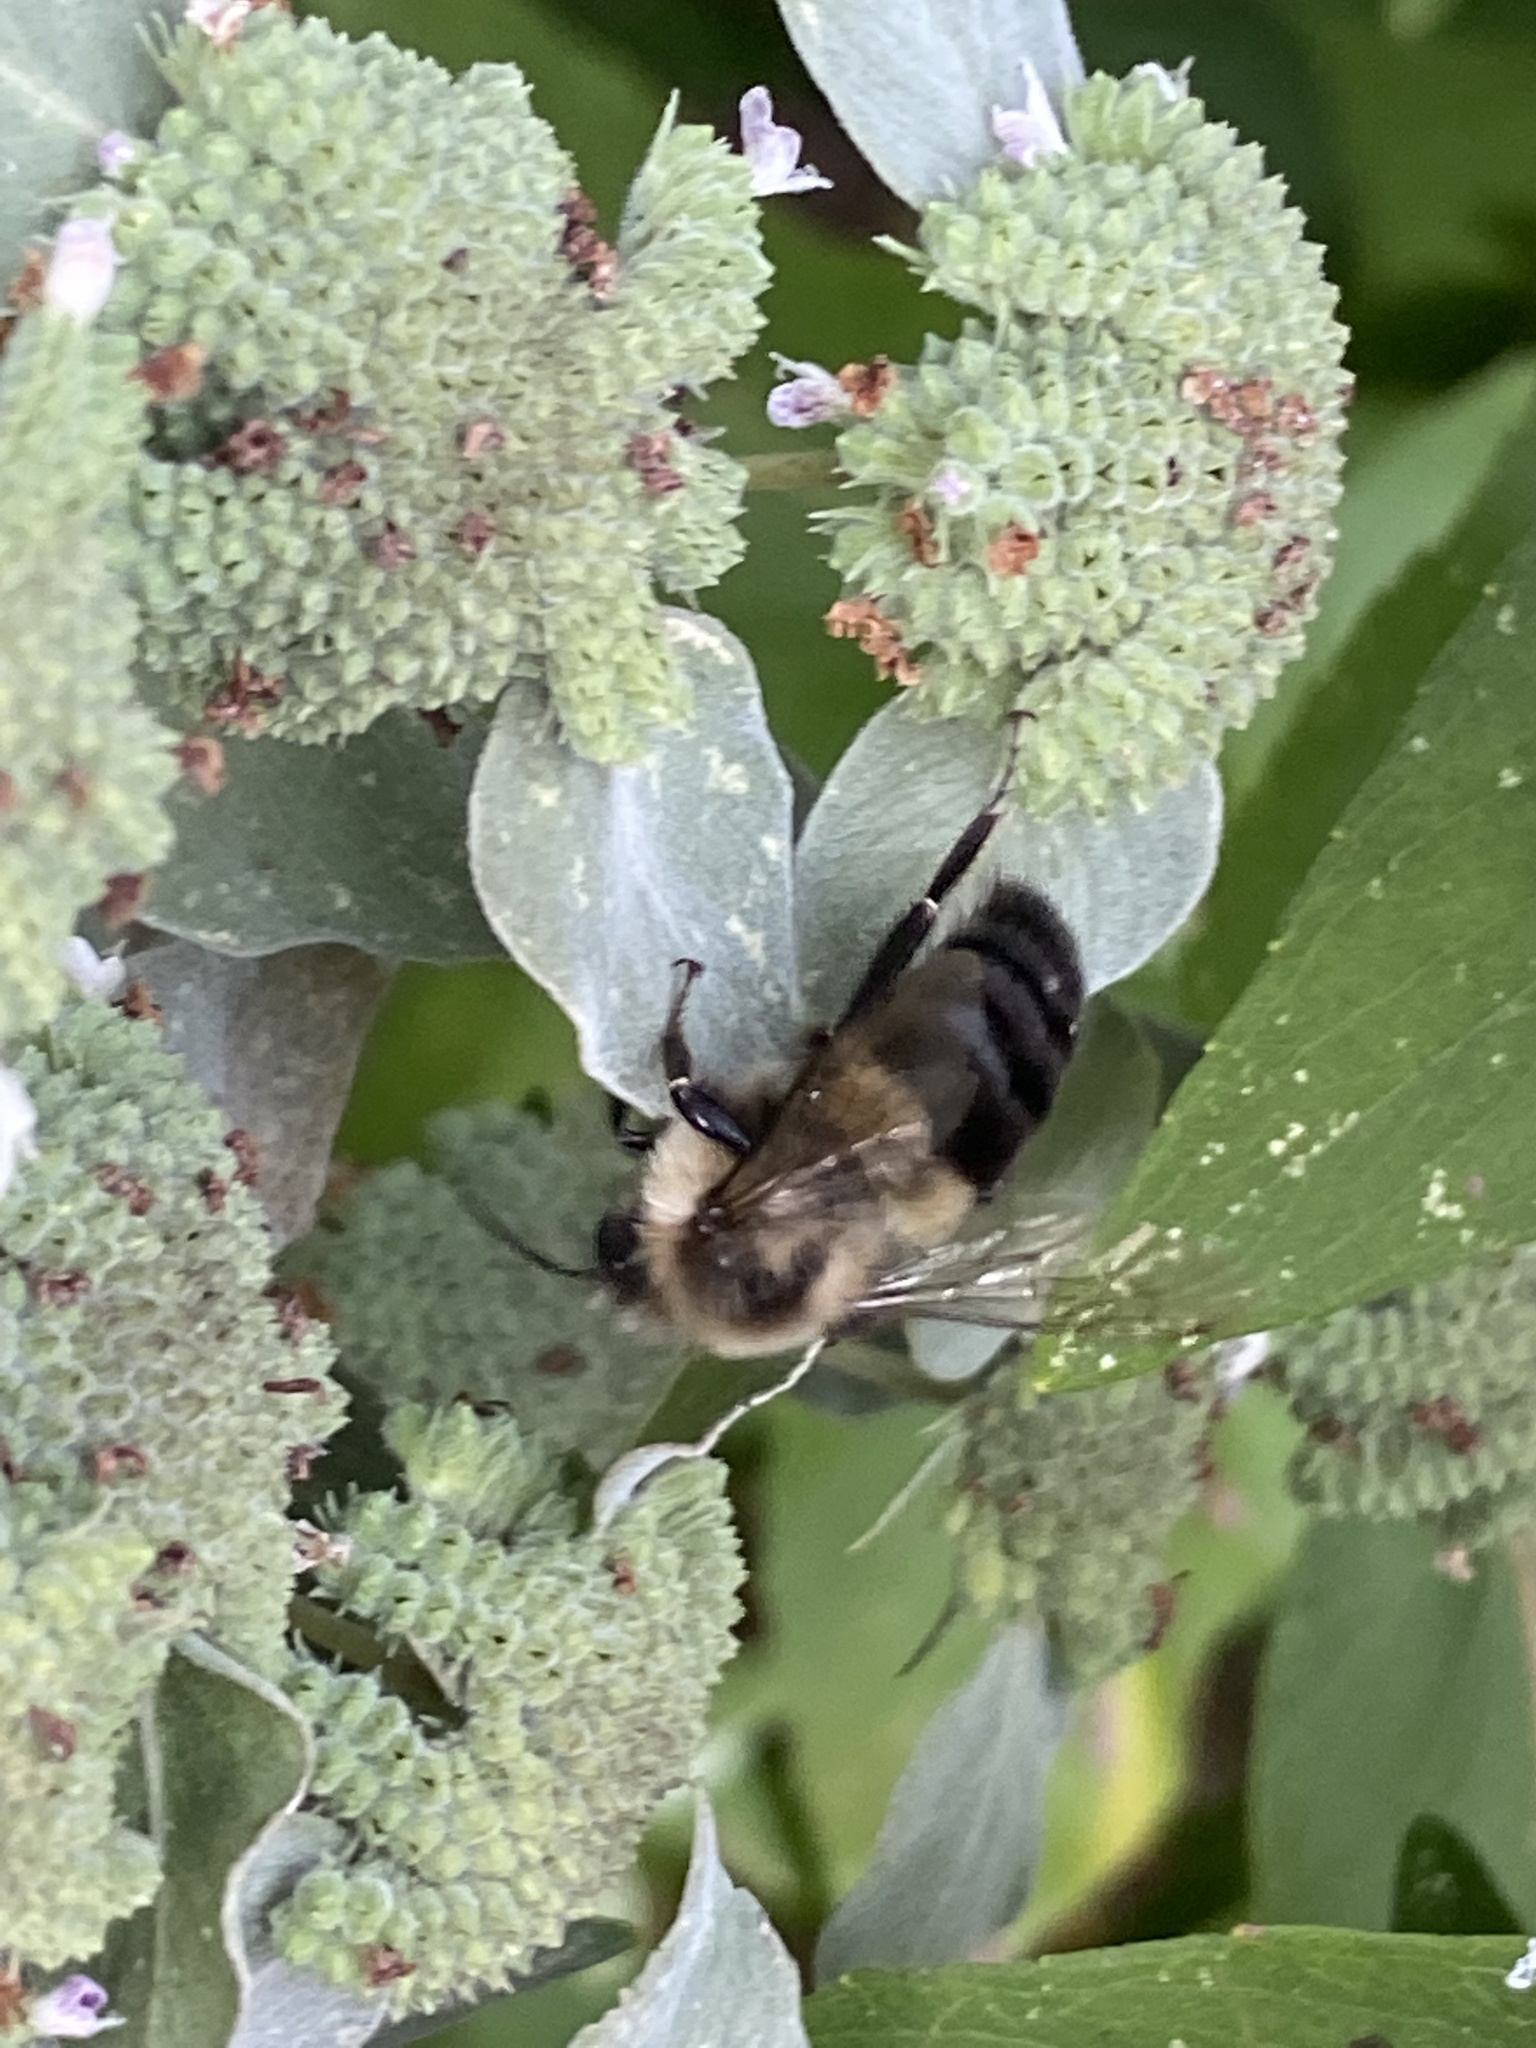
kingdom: Animalia
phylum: Arthropoda
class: Insecta
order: Hymenoptera
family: Apidae
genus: Bombus
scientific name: Bombus impatiens
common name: Common eastern bumble bee
